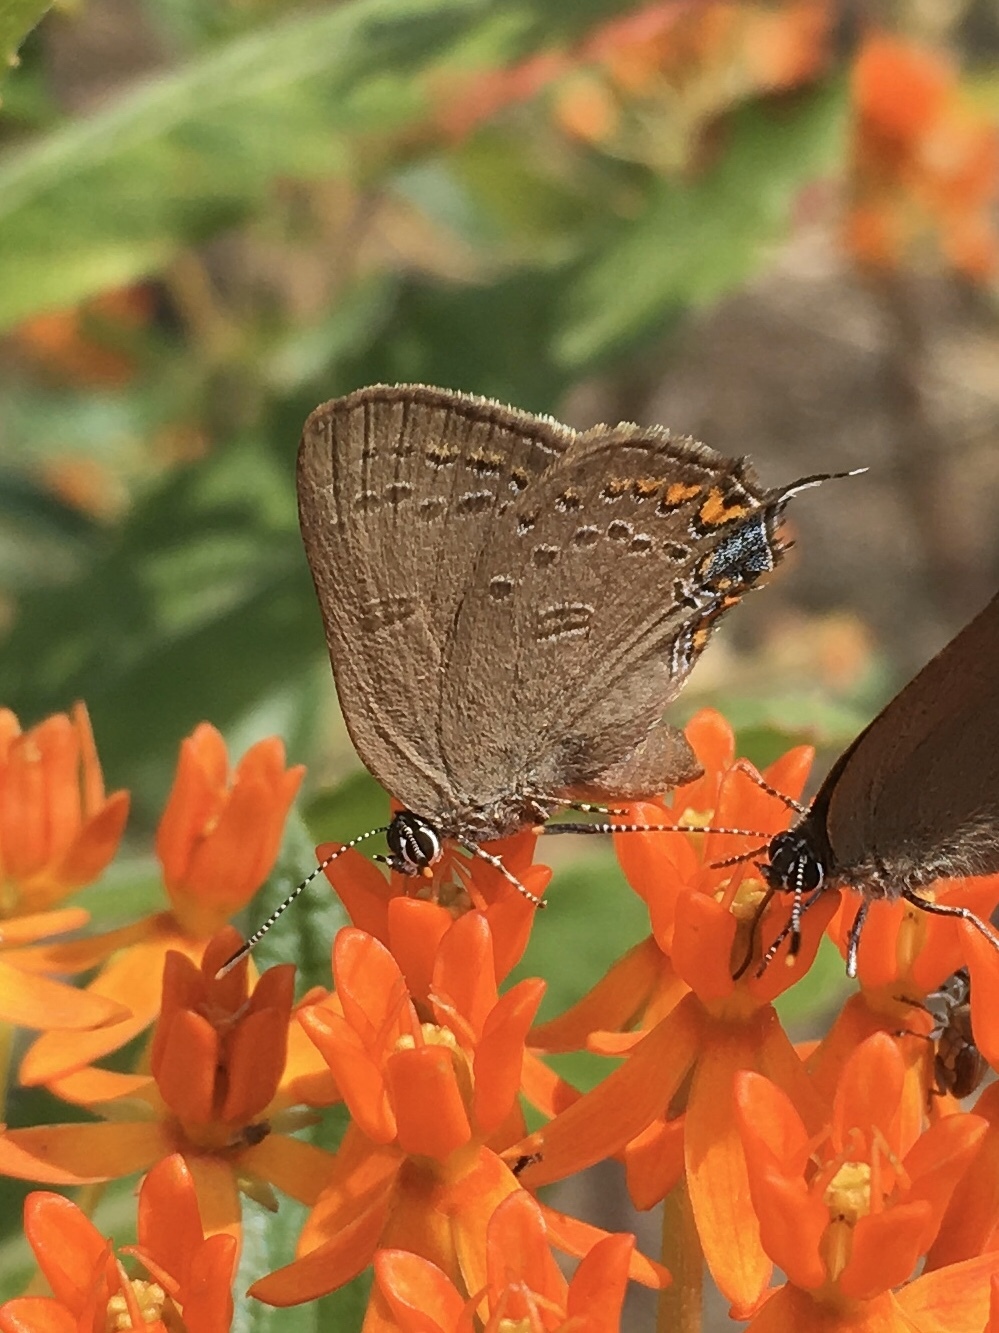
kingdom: Animalia
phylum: Arthropoda
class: Insecta
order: Lepidoptera
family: Lycaenidae
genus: Satyrium
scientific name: Satyrium edwardsii
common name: Edwards' hairstreak
